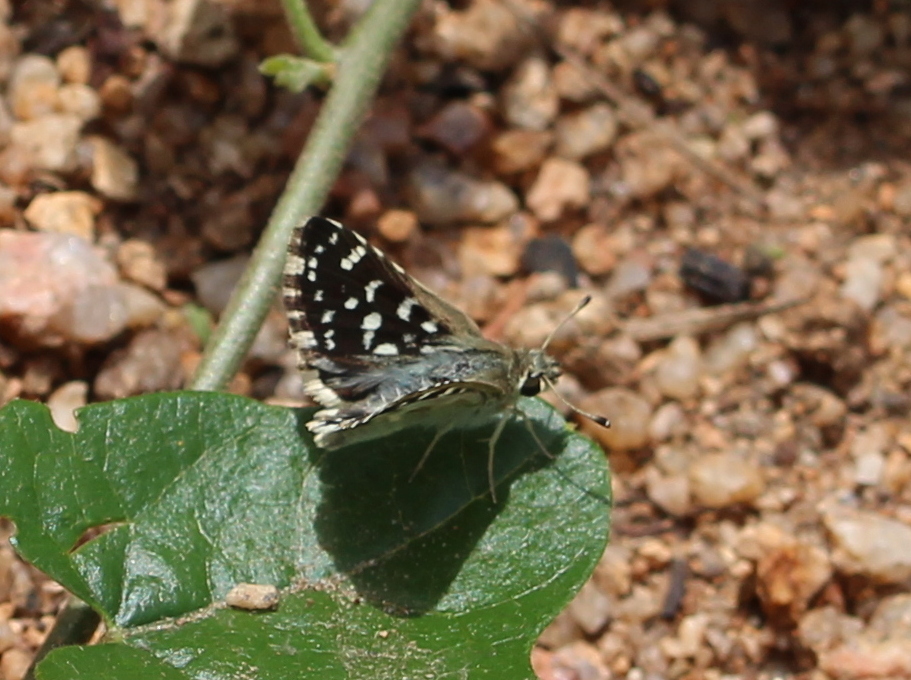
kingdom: Animalia
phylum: Arthropoda
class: Insecta
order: Lepidoptera
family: Hesperiidae
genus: Spialia
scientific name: Spialia galba
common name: Indian skipper
